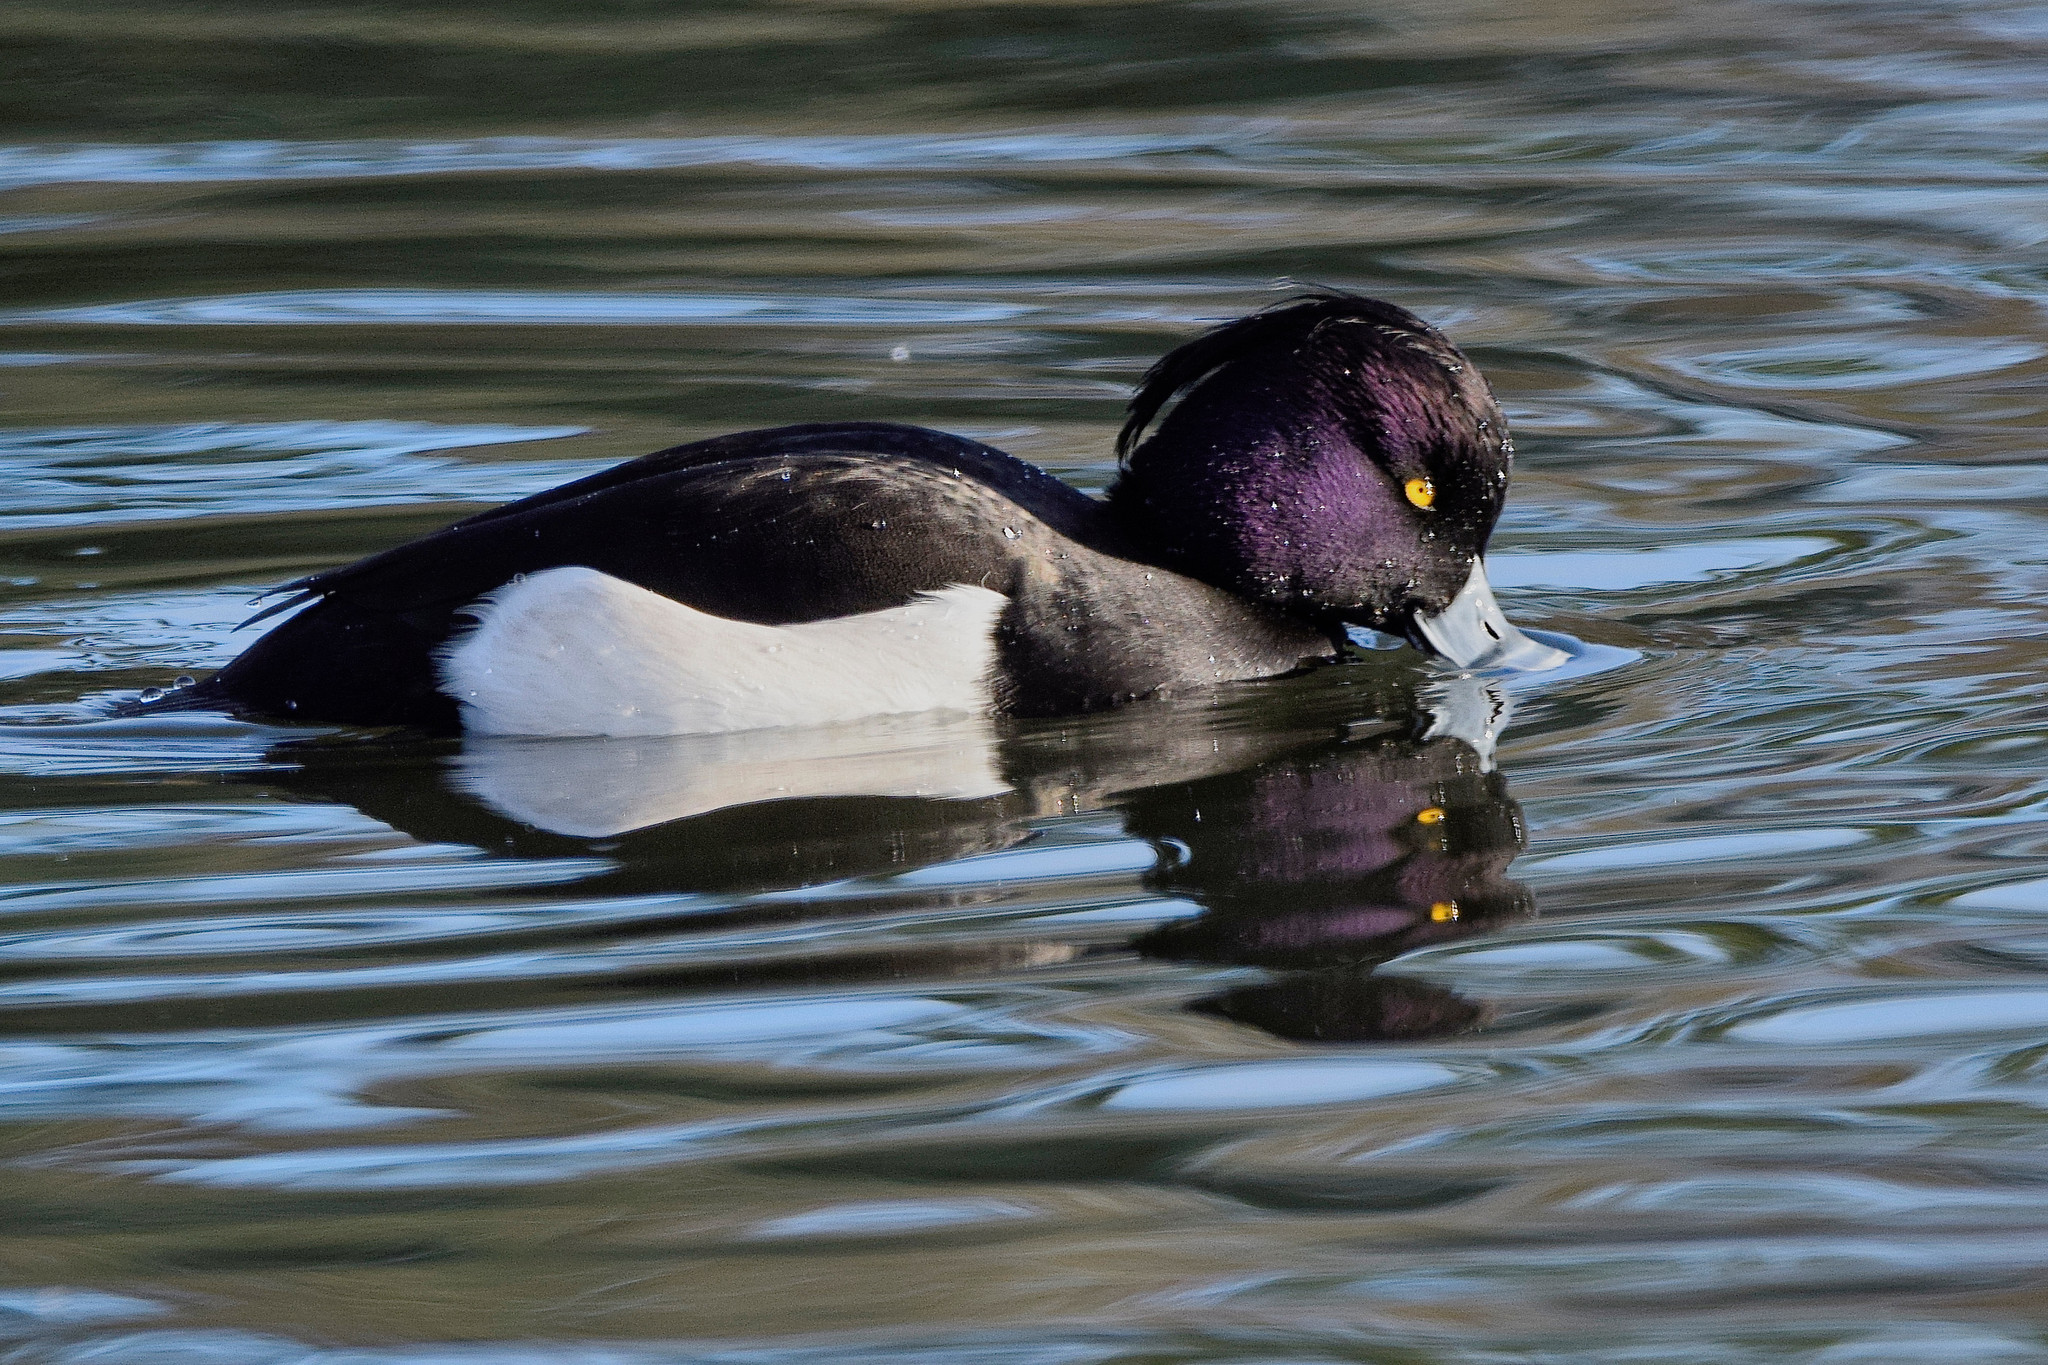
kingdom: Animalia
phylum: Chordata
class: Aves
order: Anseriformes
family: Anatidae
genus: Aythya
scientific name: Aythya fuligula
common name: Tufted duck
